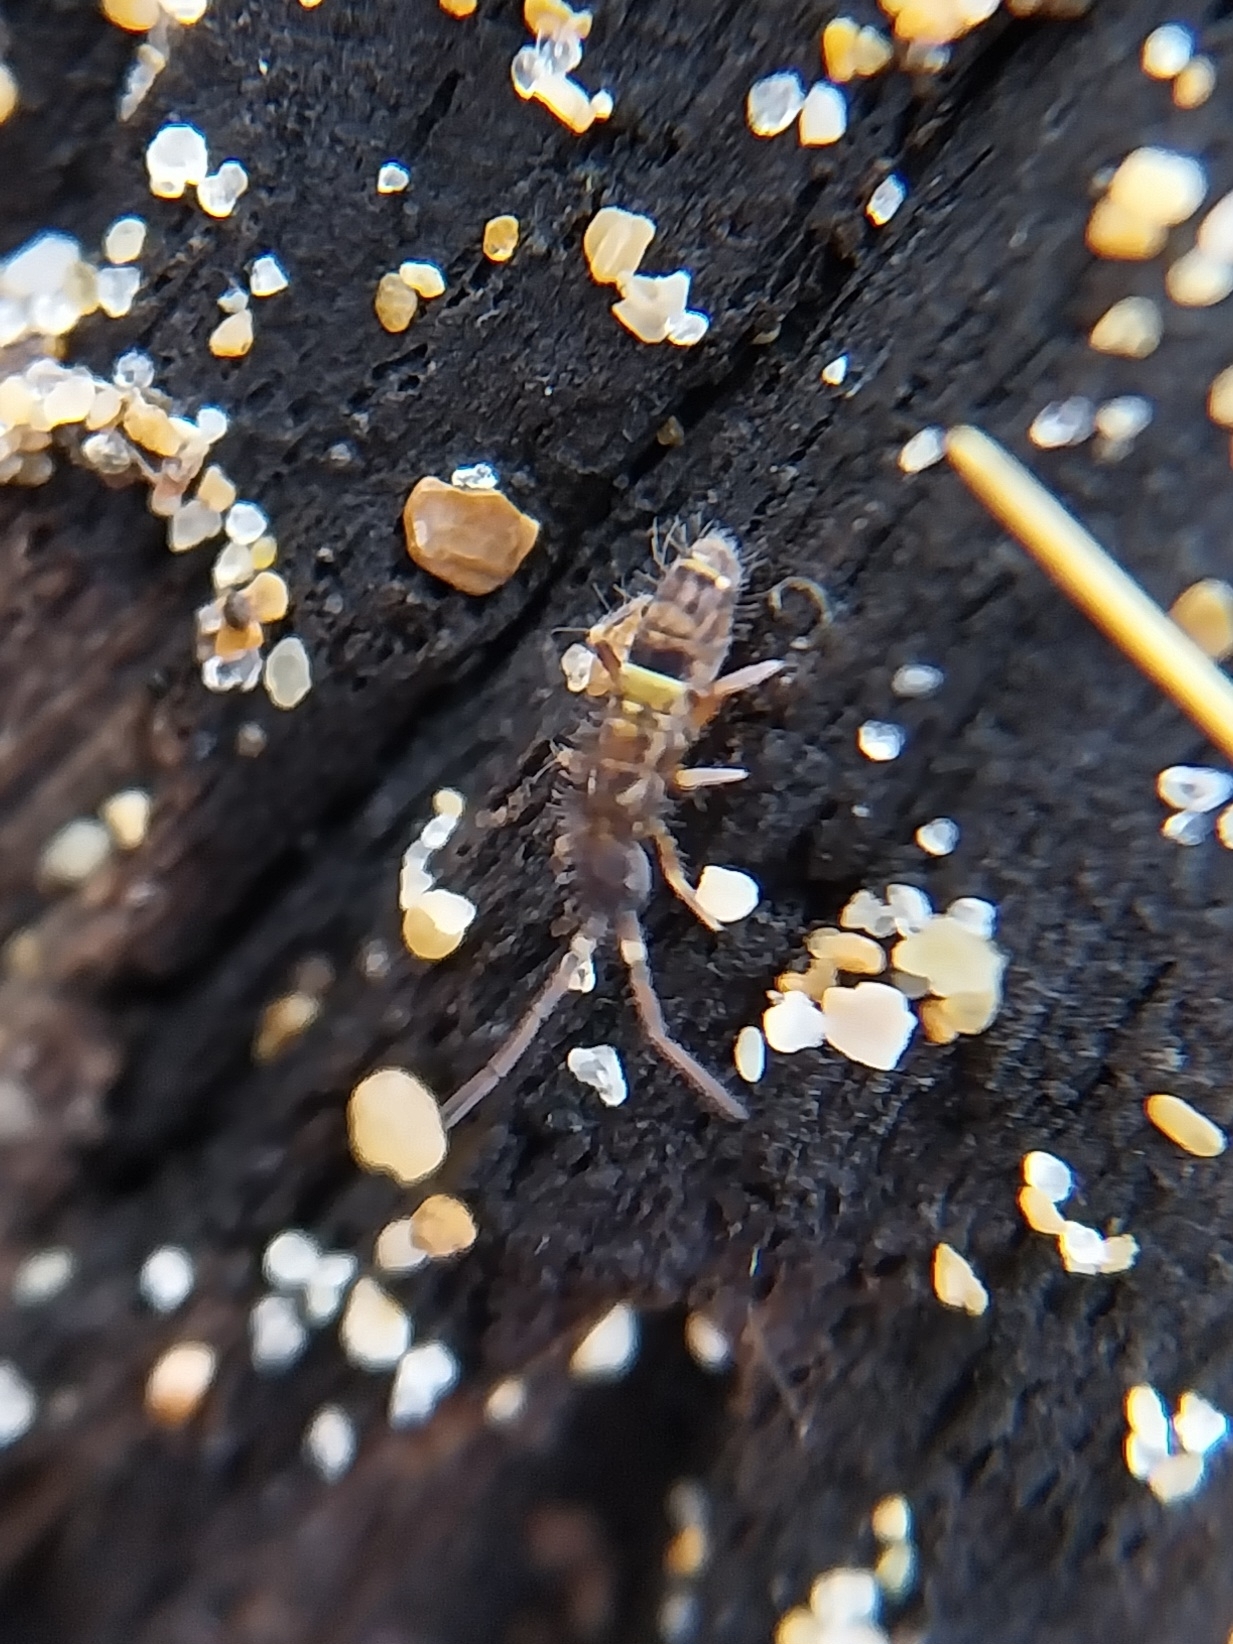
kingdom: Animalia
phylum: Arthropoda
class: Collembola
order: Entomobryomorpha
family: Orchesellidae
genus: Orchesella
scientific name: Orchesella cincta
